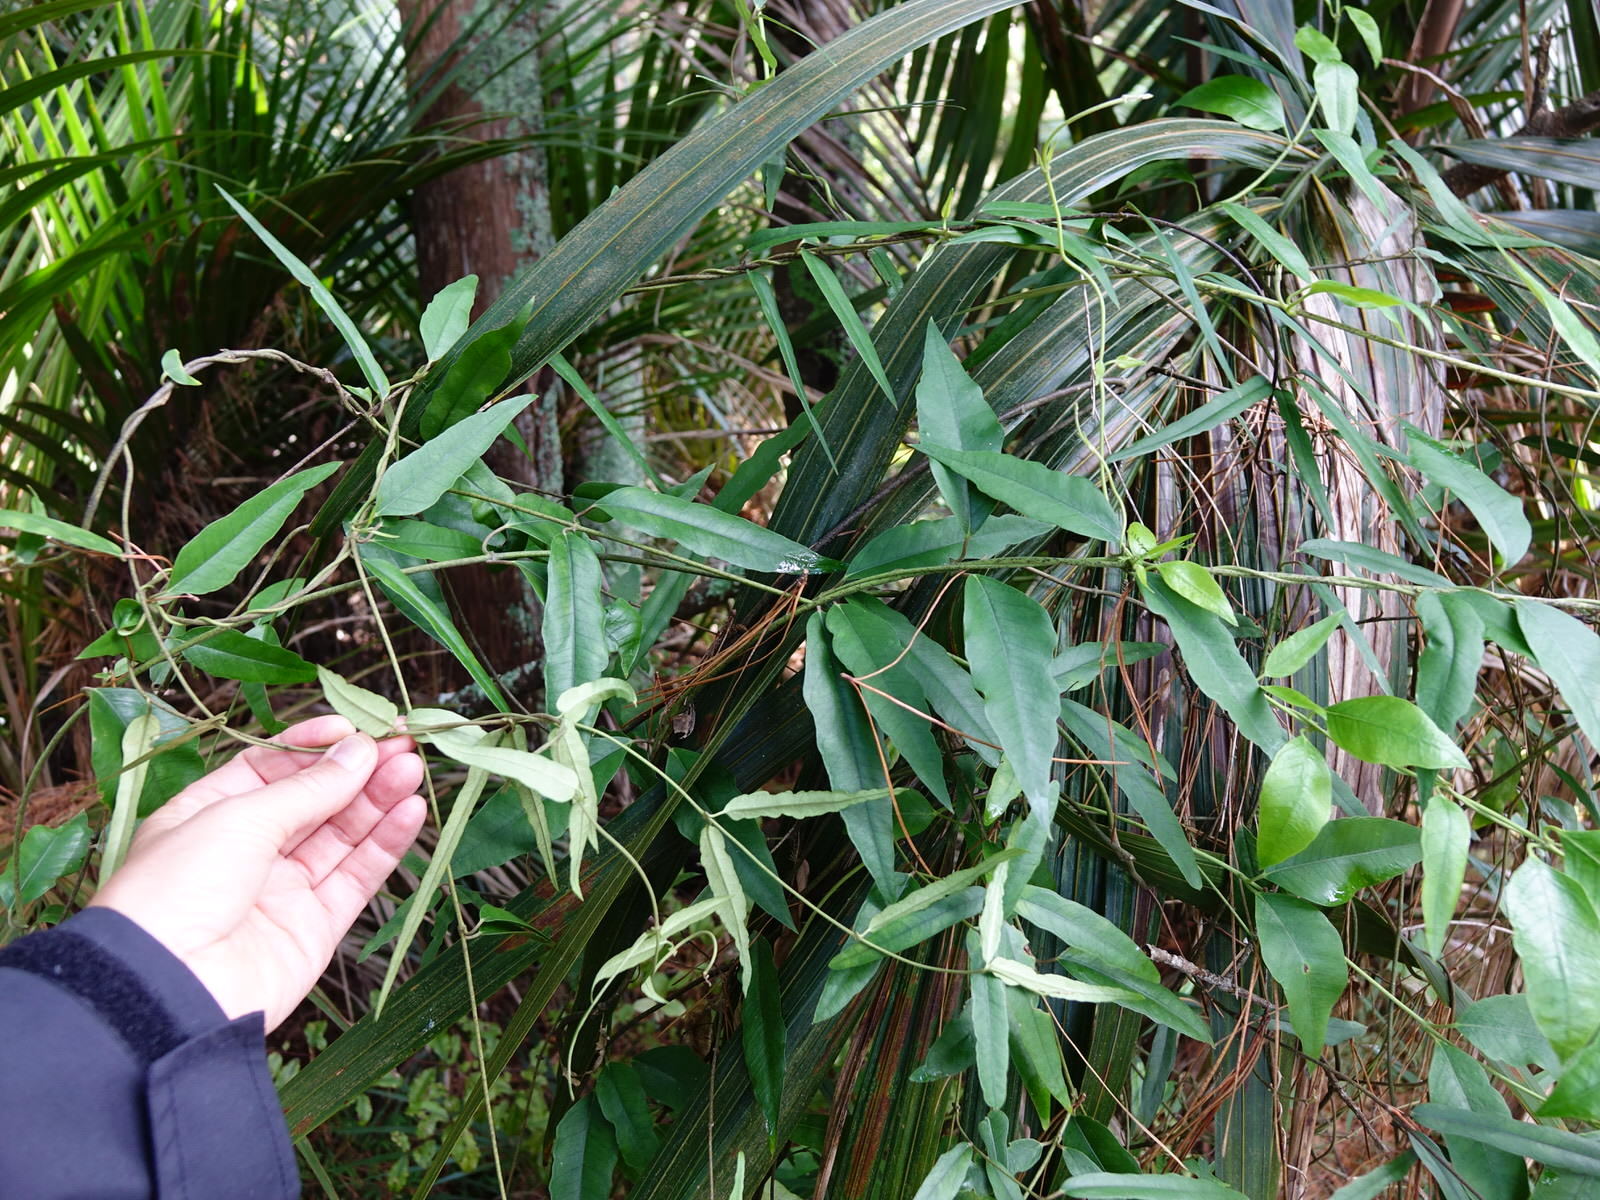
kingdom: Plantae
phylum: Tracheophyta
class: Magnoliopsida
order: Gentianales
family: Apocynaceae
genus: Parsonsia
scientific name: Parsonsia heterophylla
